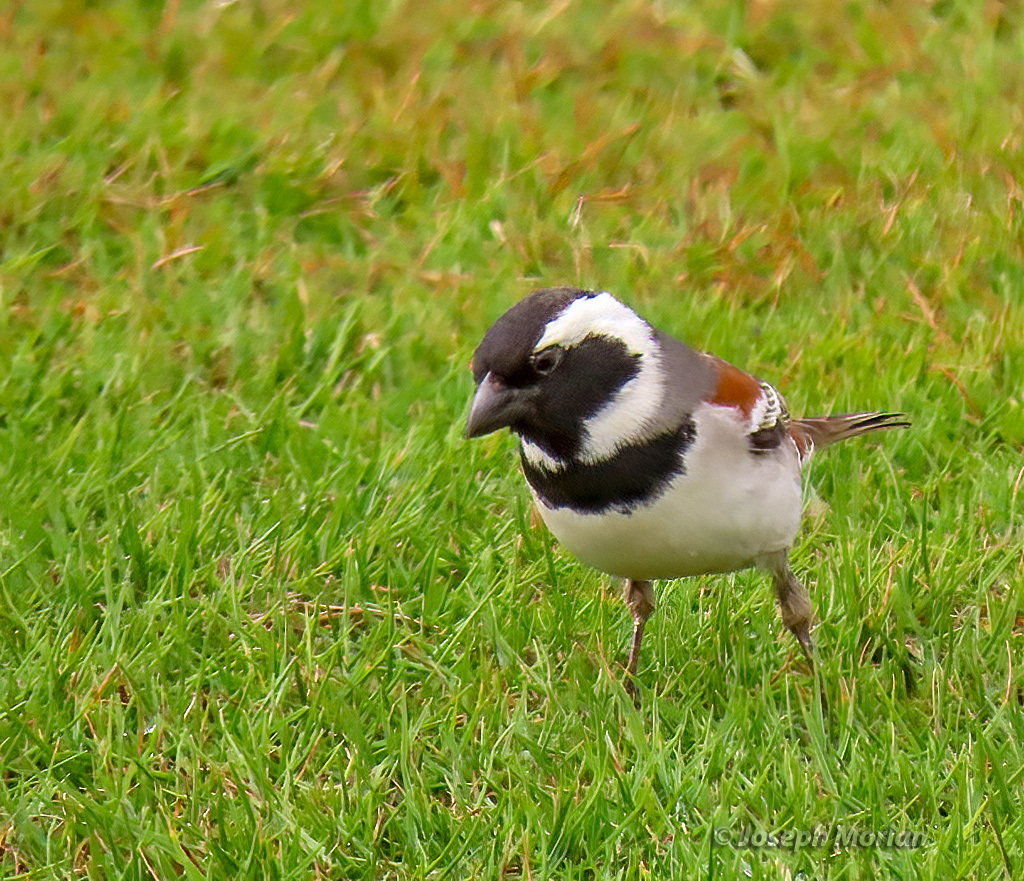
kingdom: Animalia
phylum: Chordata
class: Aves
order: Passeriformes
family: Passeridae
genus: Passer
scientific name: Passer melanurus
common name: Cape sparrow
